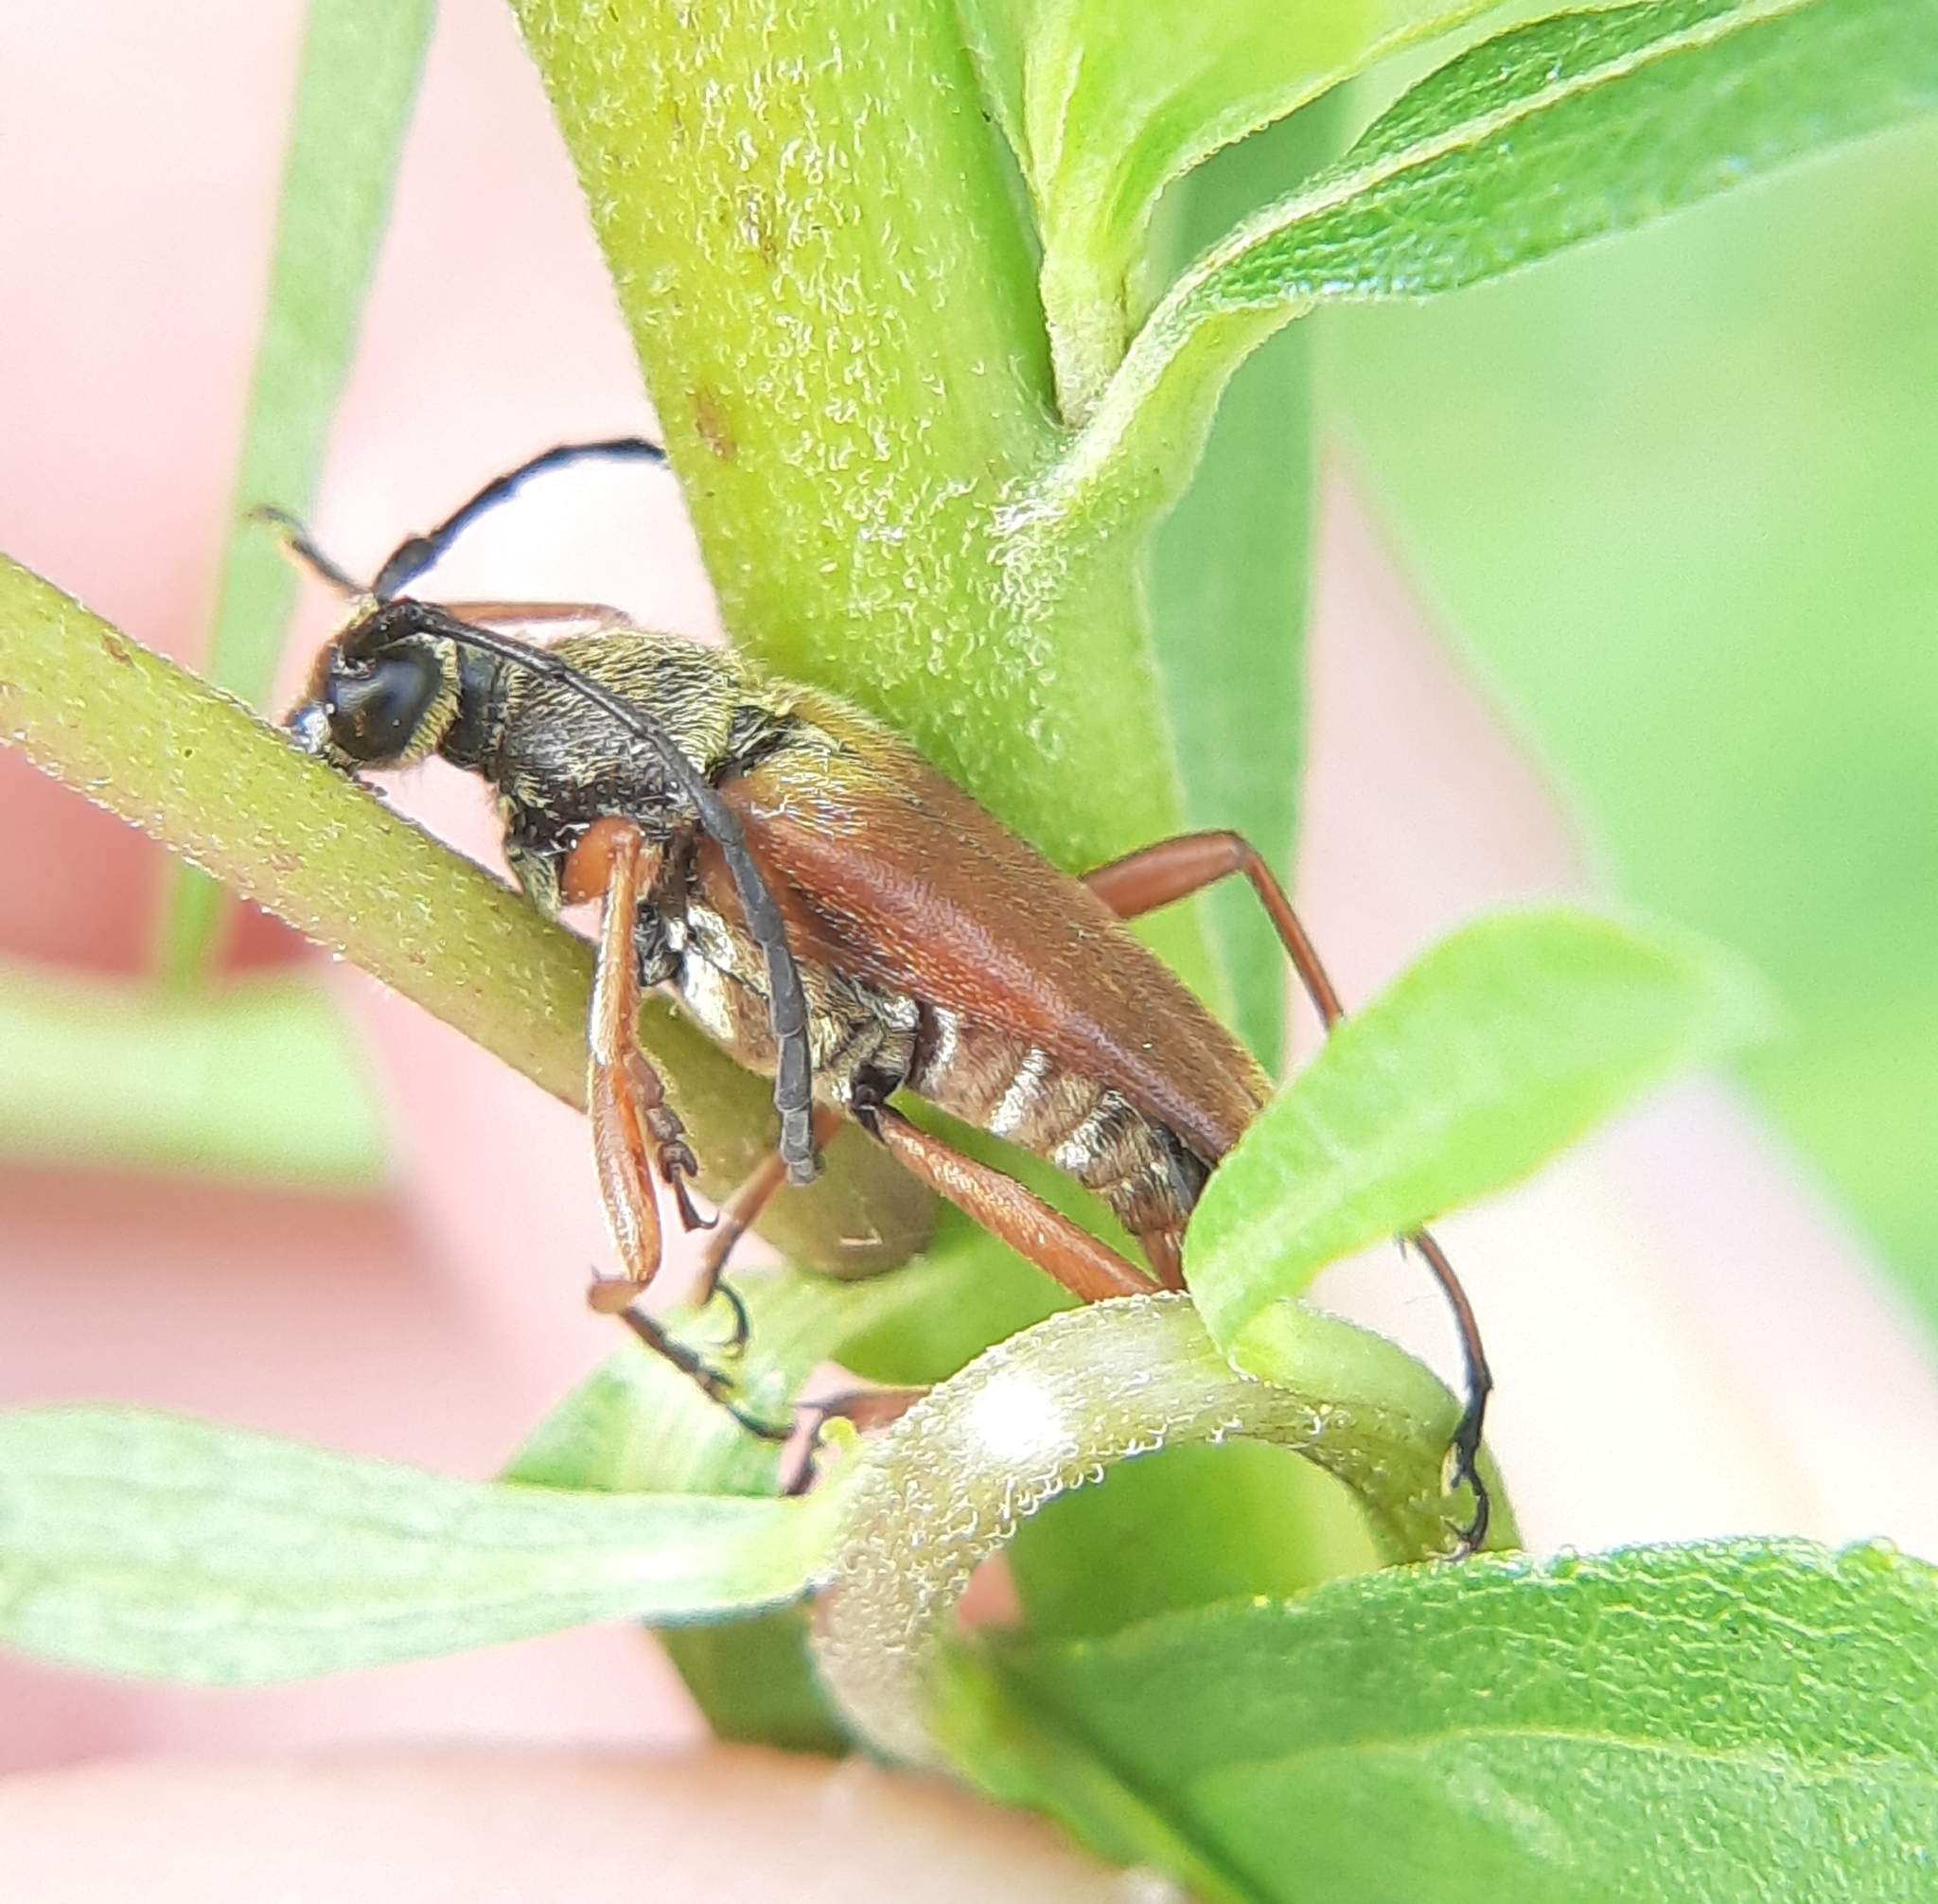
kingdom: Animalia
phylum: Arthropoda
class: Insecta
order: Coleoptera
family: Cerambycidae
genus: Typocerus
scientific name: Typocerus acuticauda
